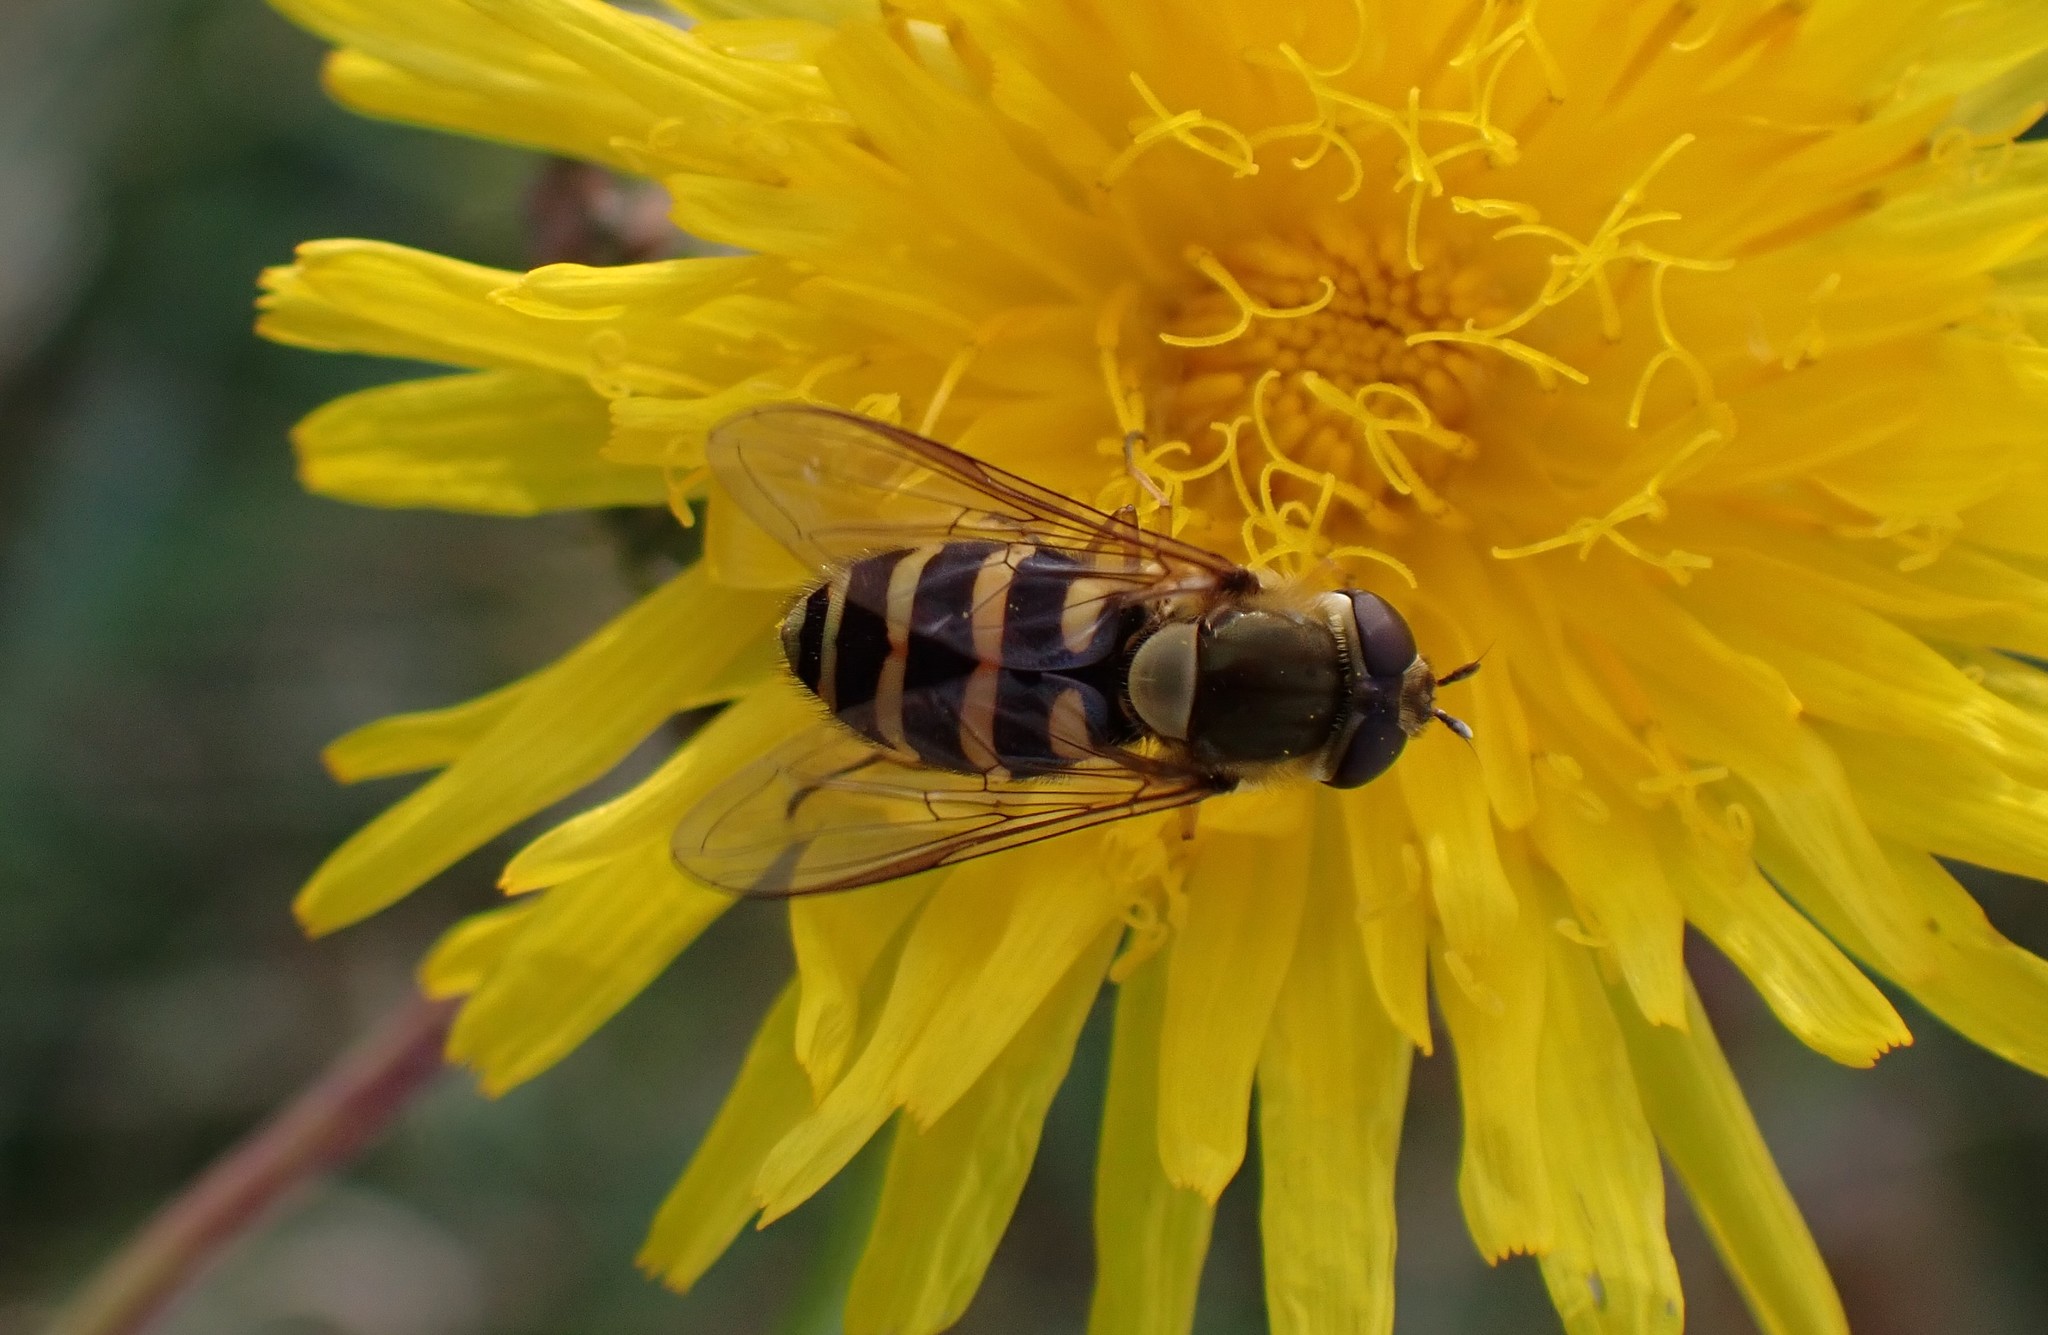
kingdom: Animalia
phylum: Arthropoda
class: Insecta
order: Diptera
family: Syrphidae
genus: Syrphus
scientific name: Syrphus torvus
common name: Hairy-eyed flower fly
